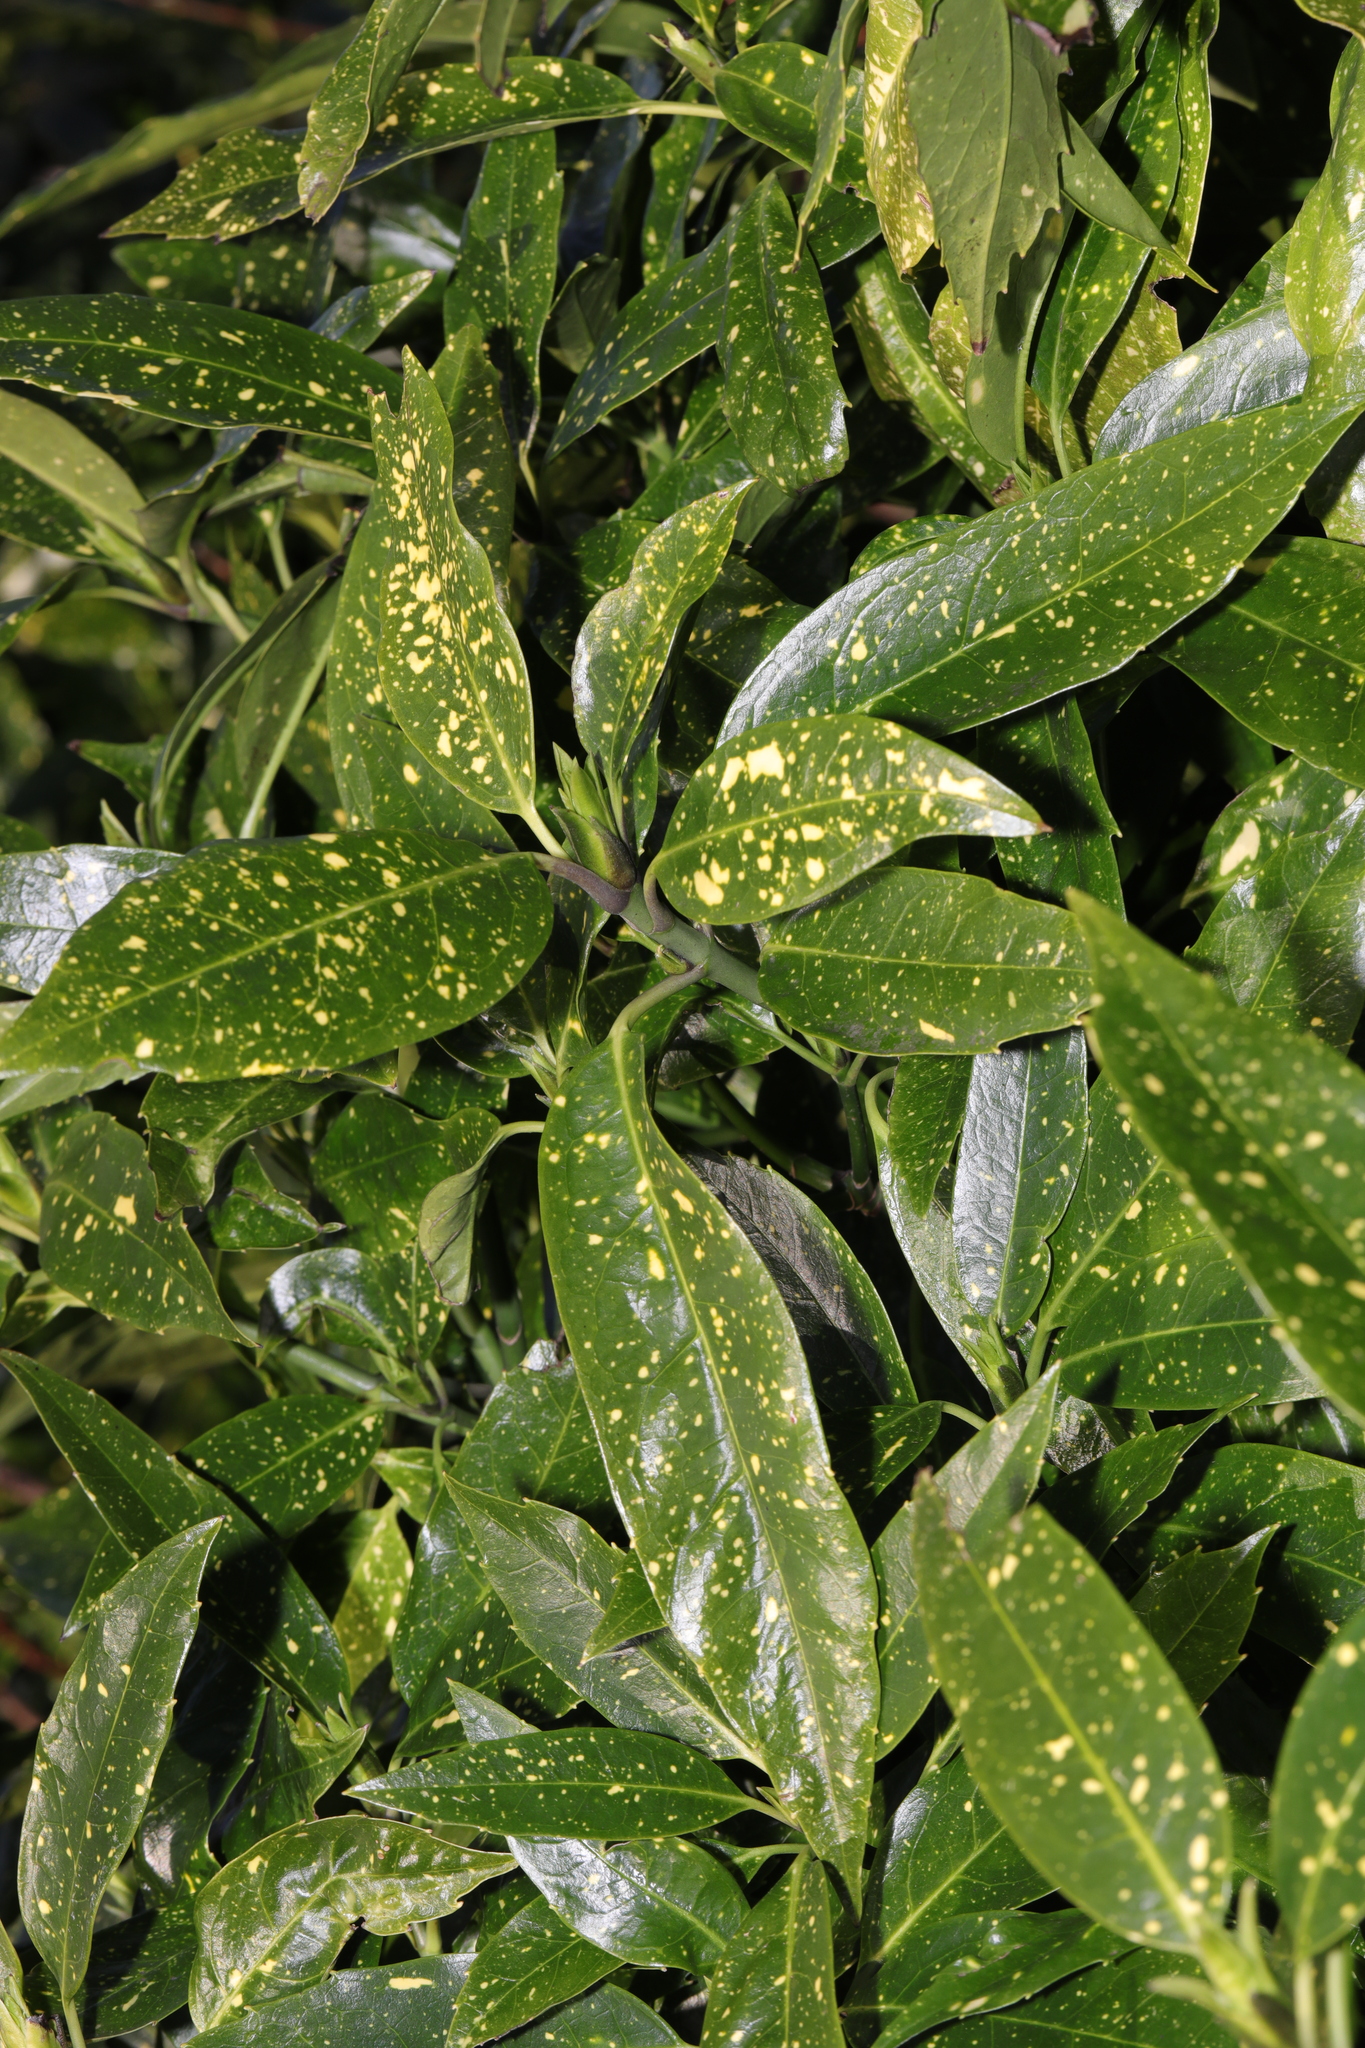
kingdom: Plantae
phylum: Tracheophyta
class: Magnoliopsida
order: Garryales
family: Garryaceae
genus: Aucuba
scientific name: Aucuba japonica
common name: Spotted-laurel
